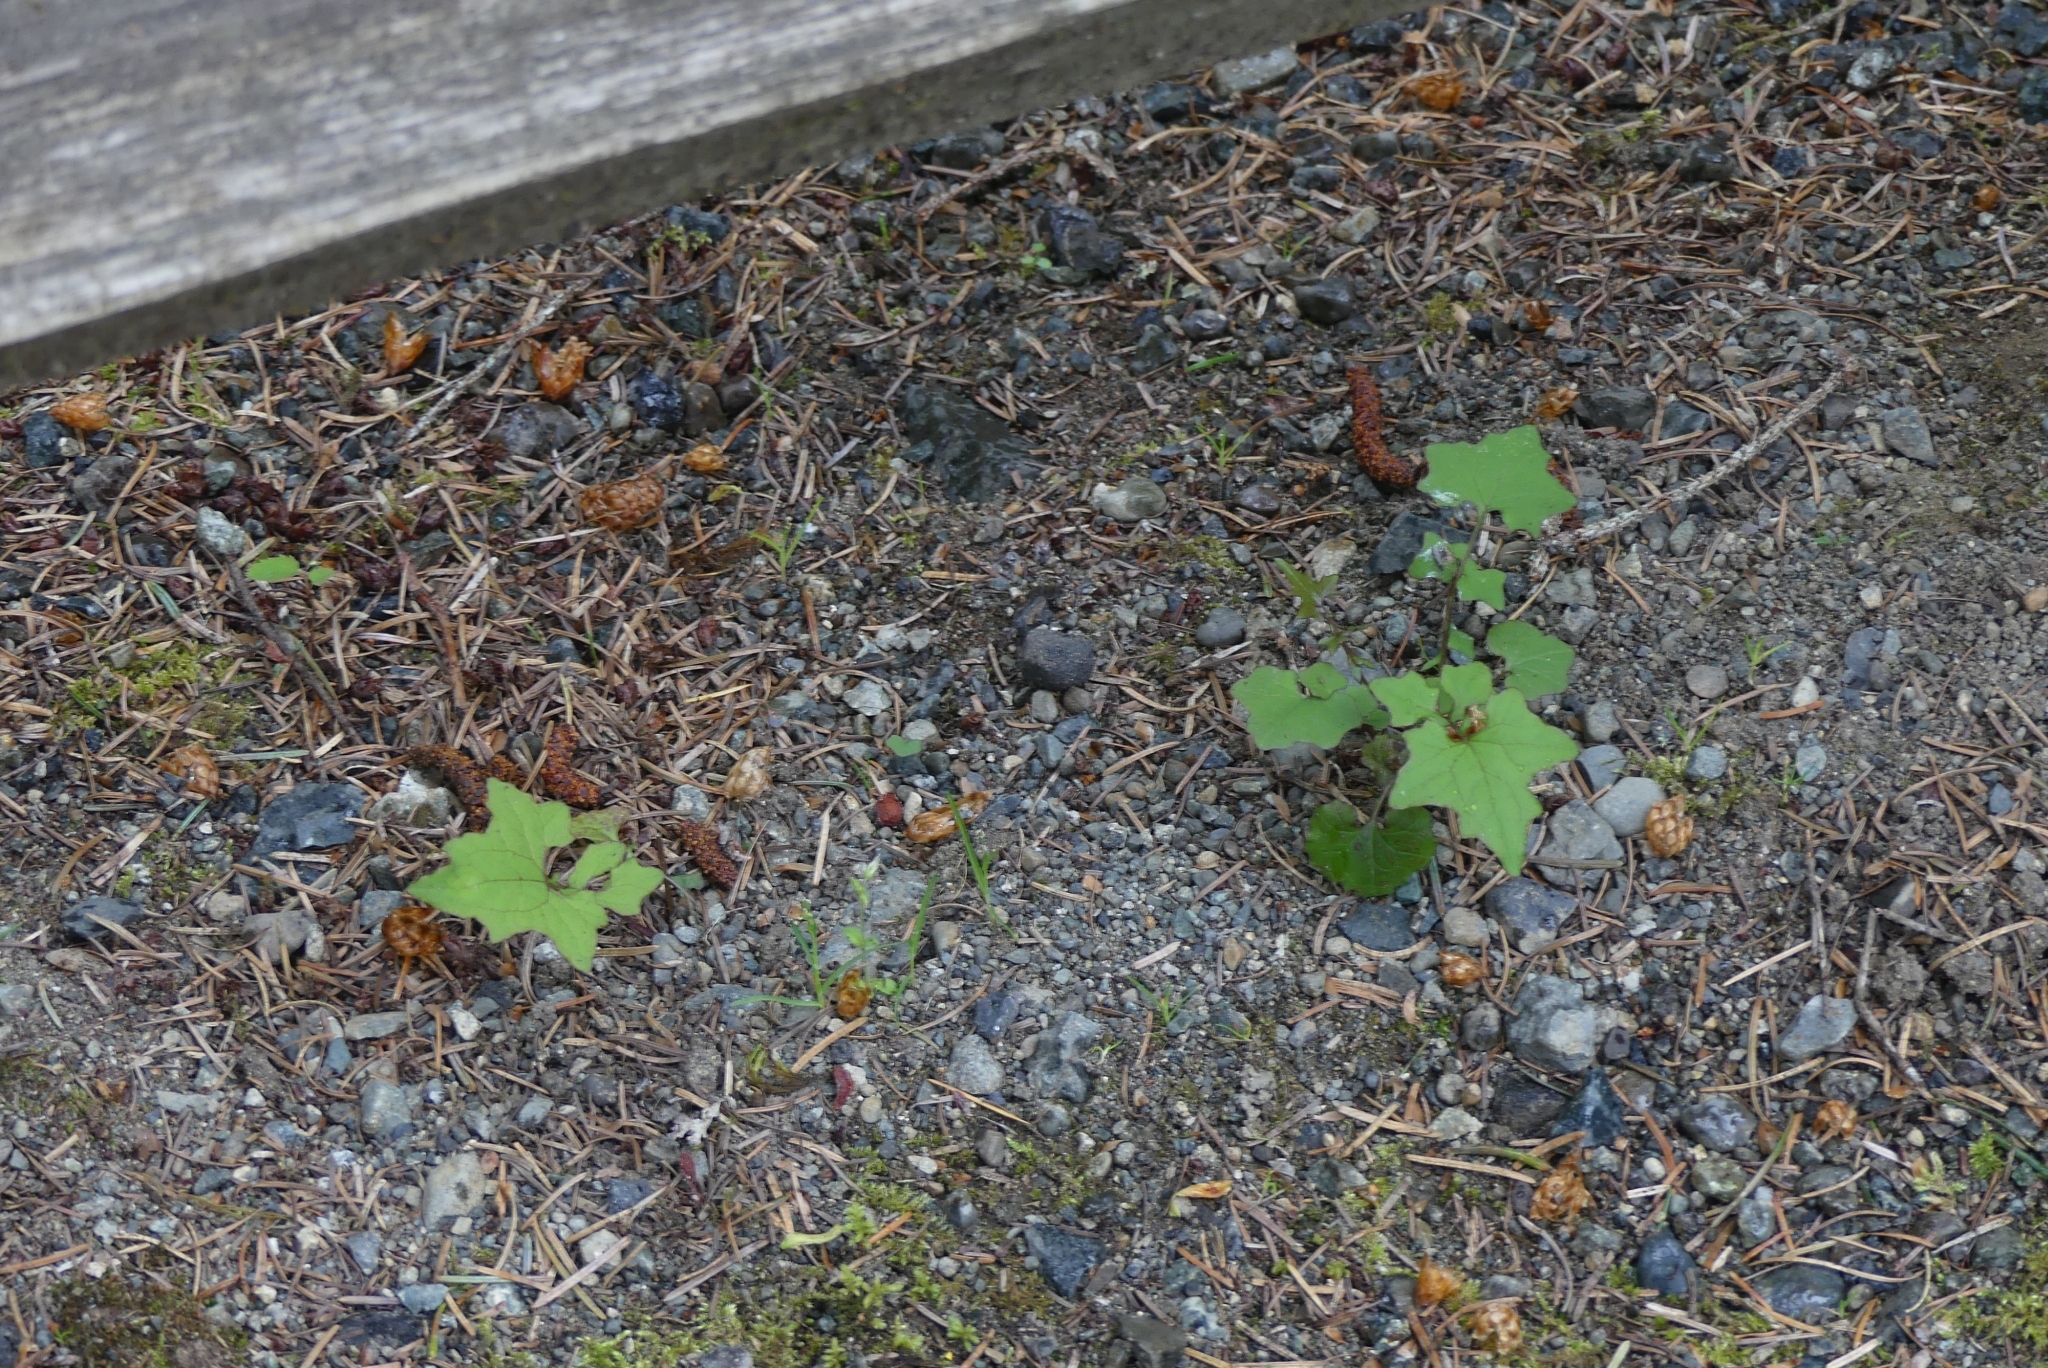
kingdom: Plantae
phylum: Tracheophyta
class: Magnoliopsida
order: Asterales
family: Asteraceae
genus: Mycelis
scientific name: Mycelis muralis
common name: Wall lettuce
